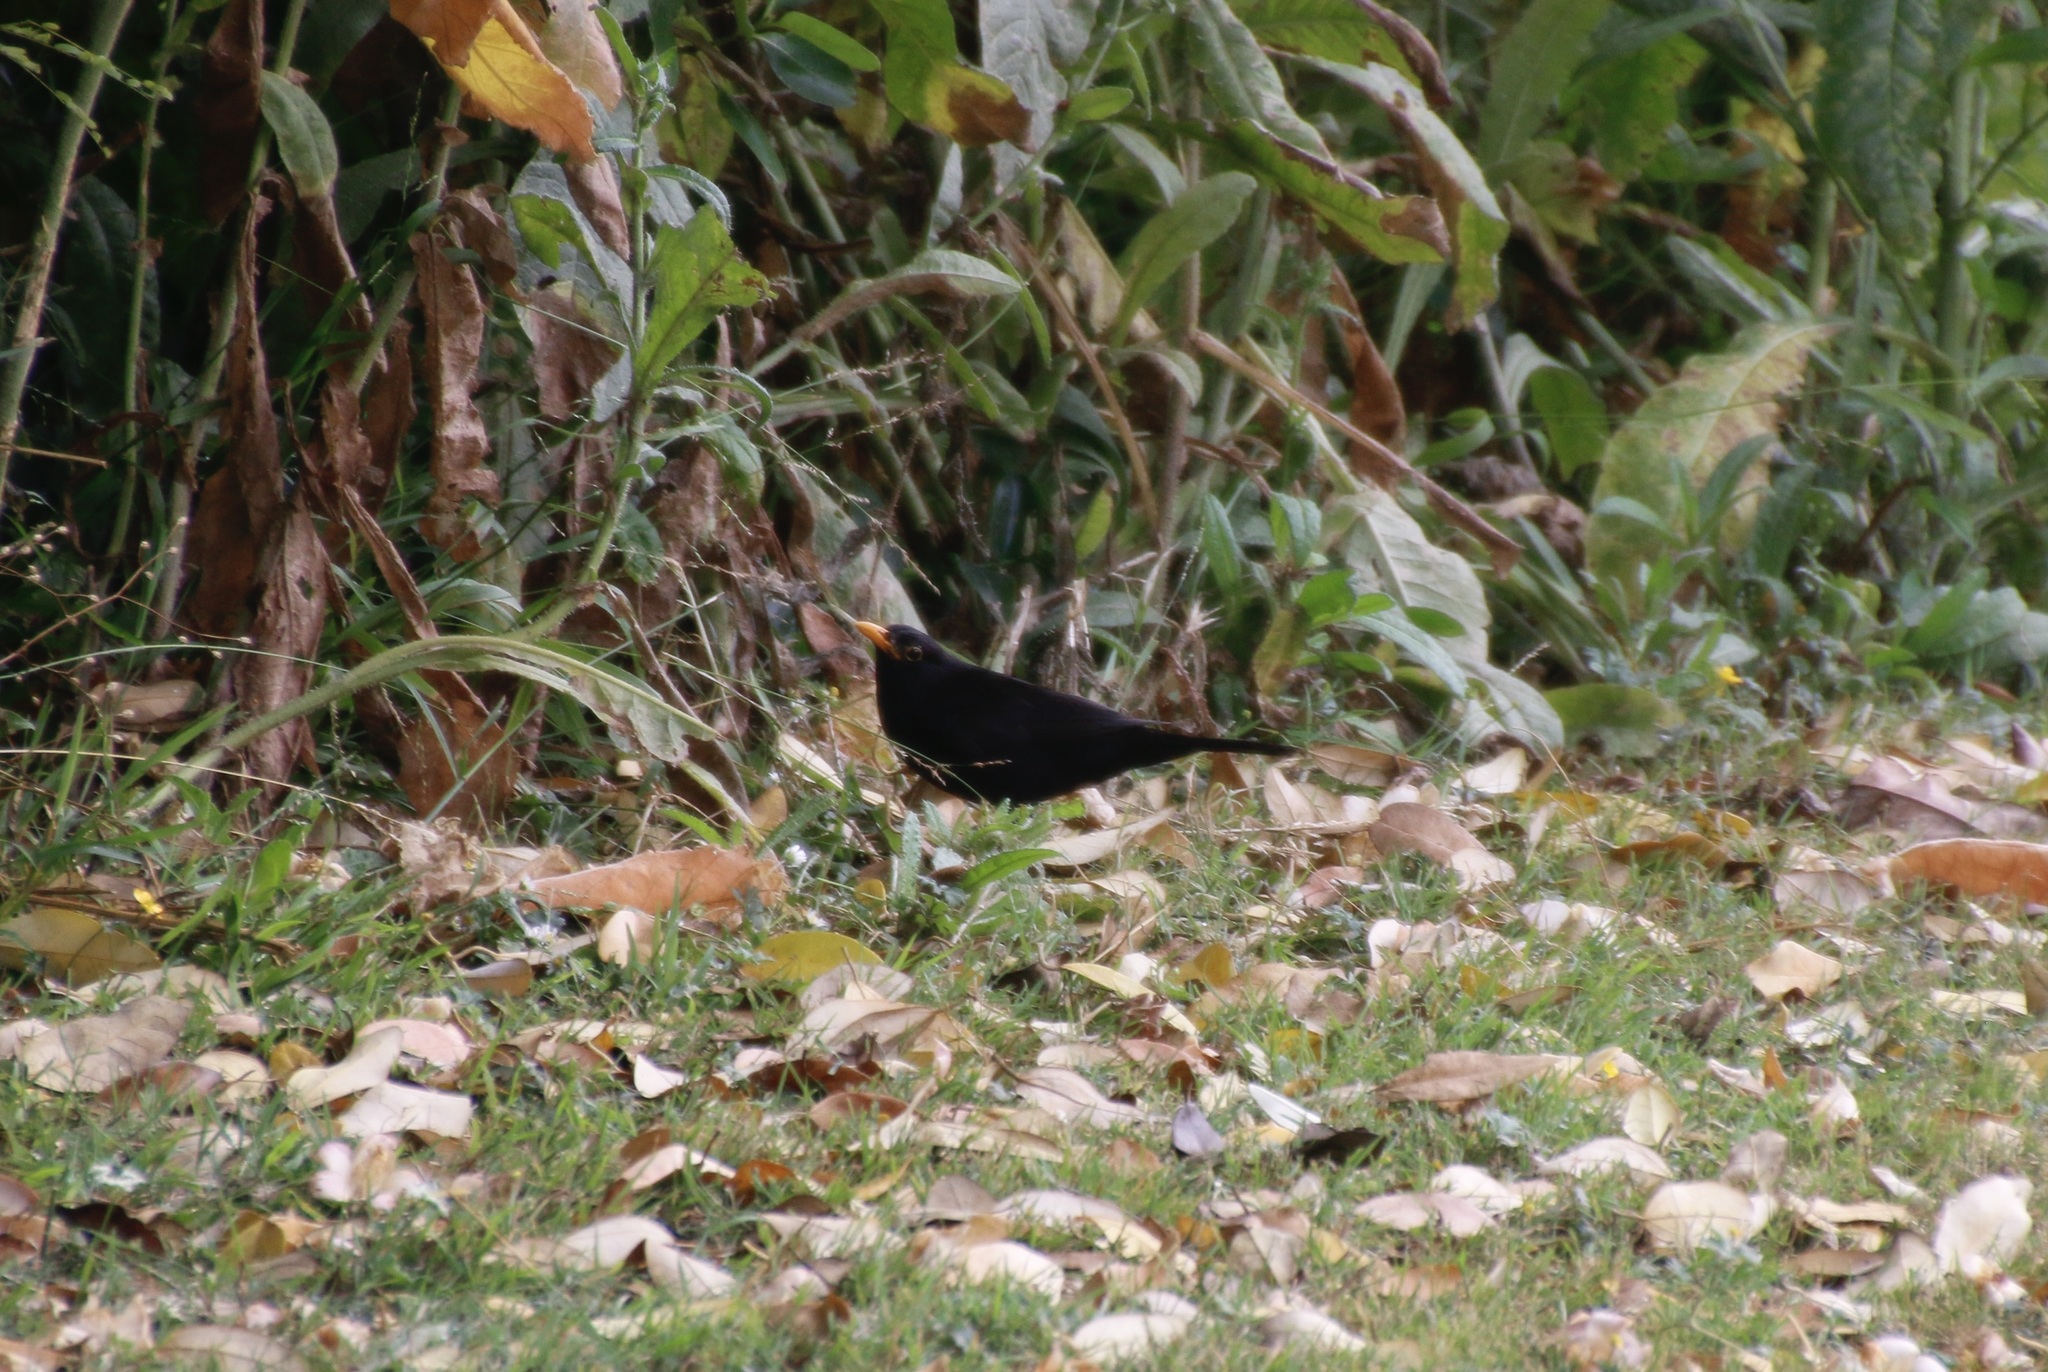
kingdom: Animalia
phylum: Chordata
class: Aves
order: Passeriformes
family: Turdidae
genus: Turdus
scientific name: Turdus merula
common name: Common blackbird
